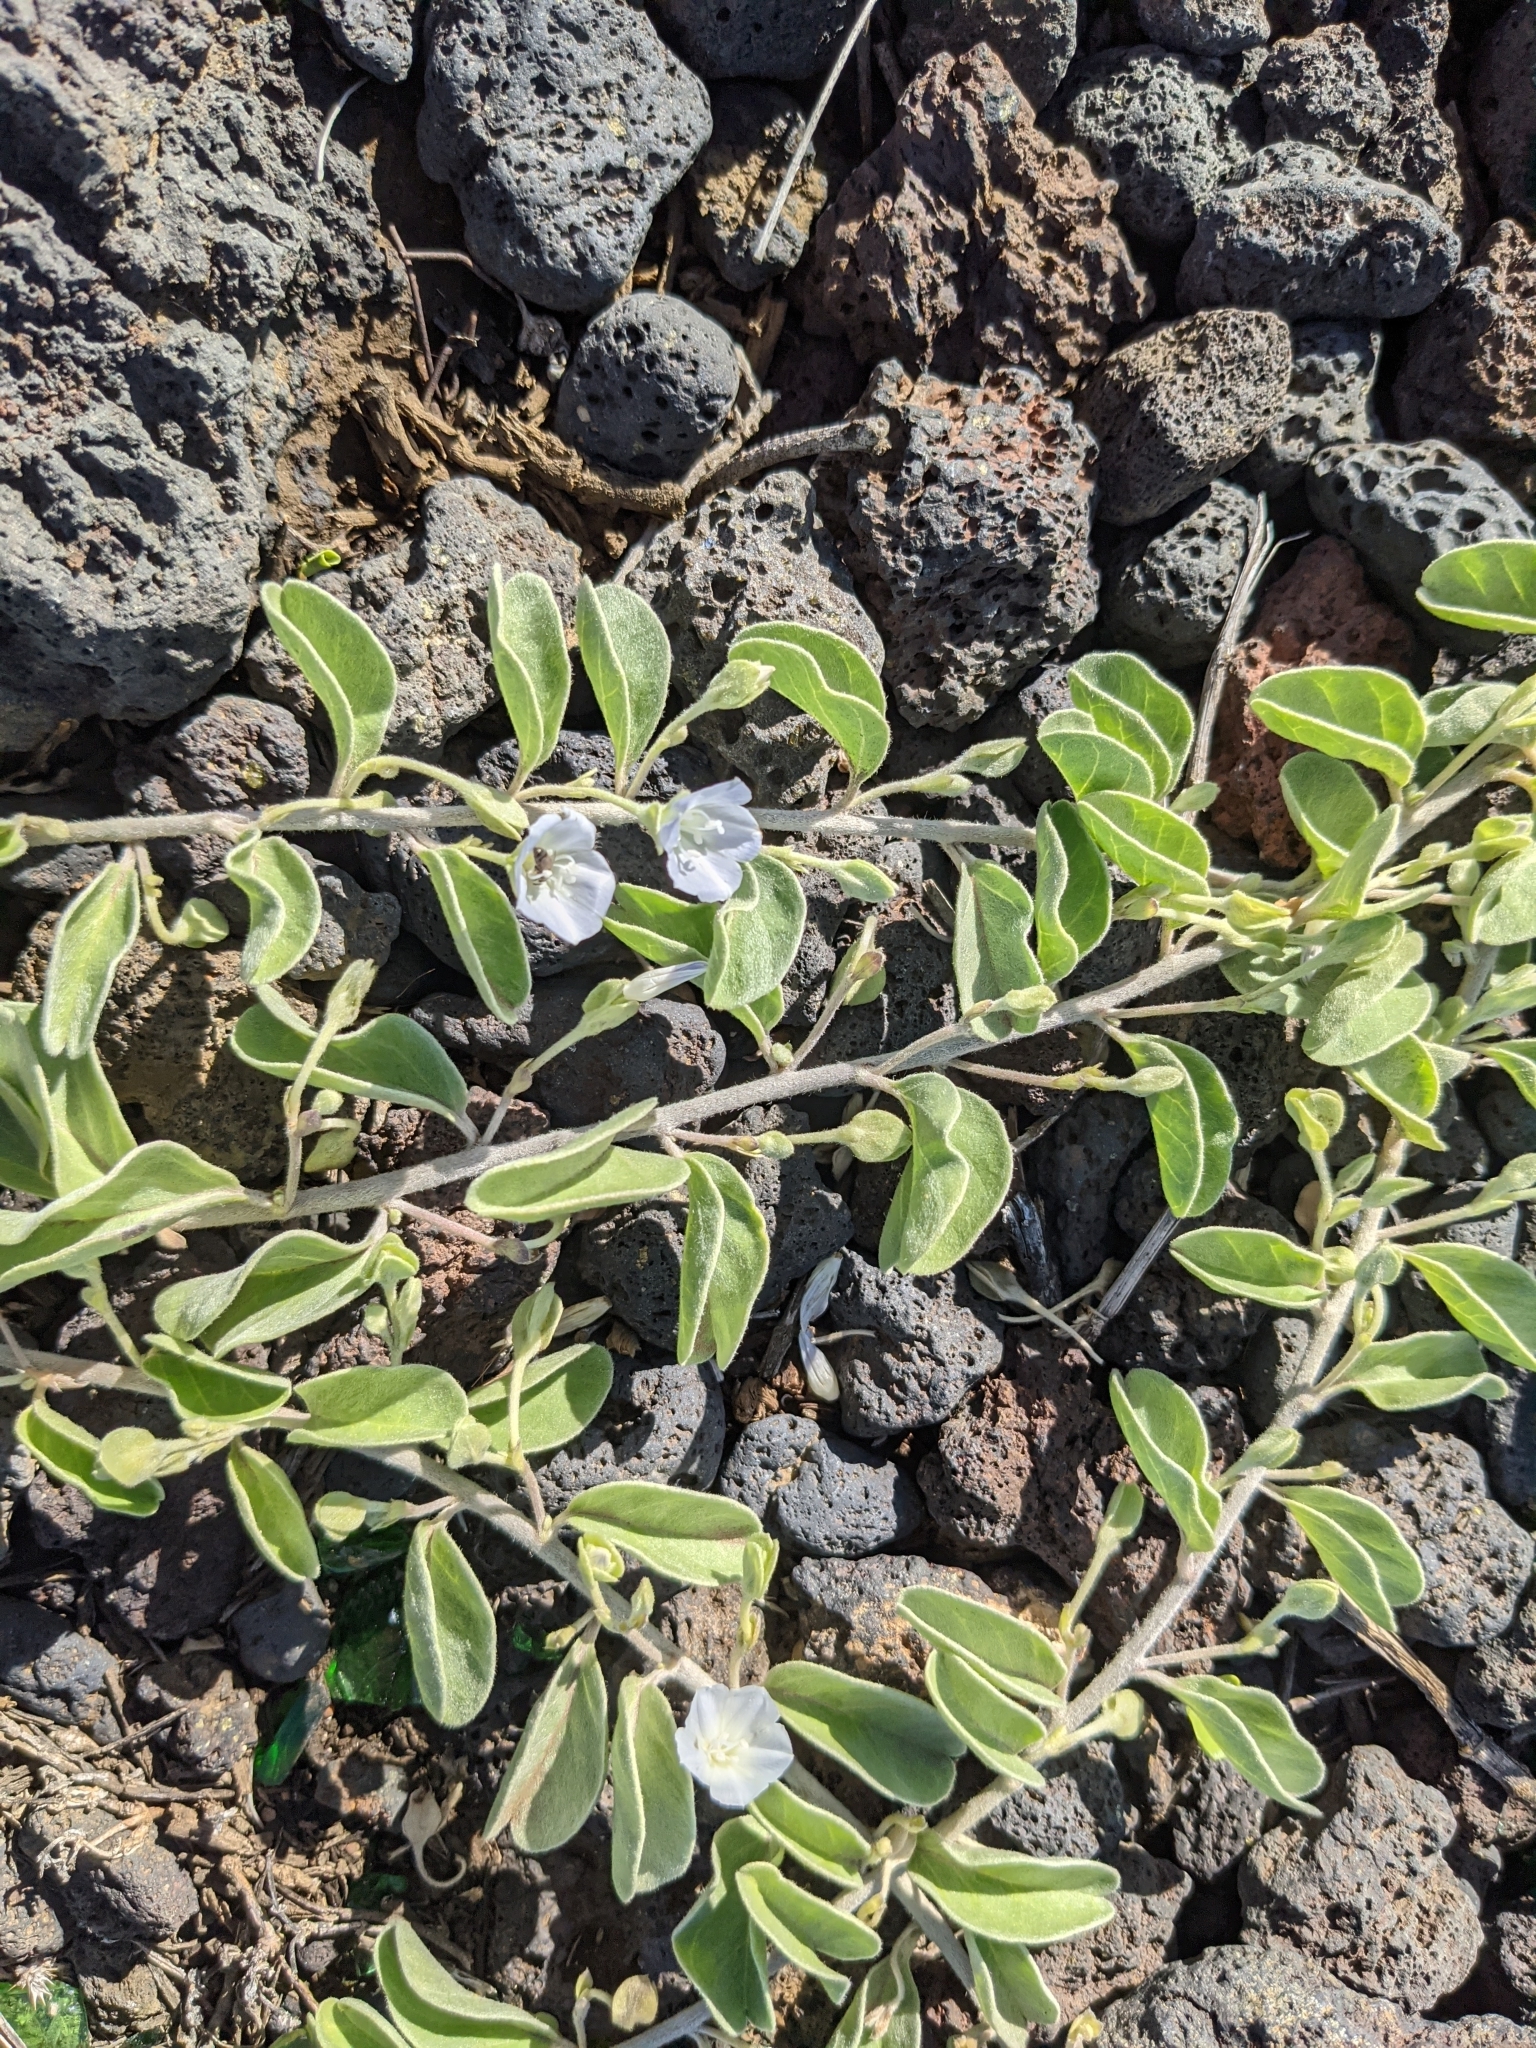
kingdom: Plantae
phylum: Tracheophyta
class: Magnoliopsida
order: Solanales
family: Convolvulaceae
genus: Jacquemontia
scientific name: Jacquemontia sandwicensis
